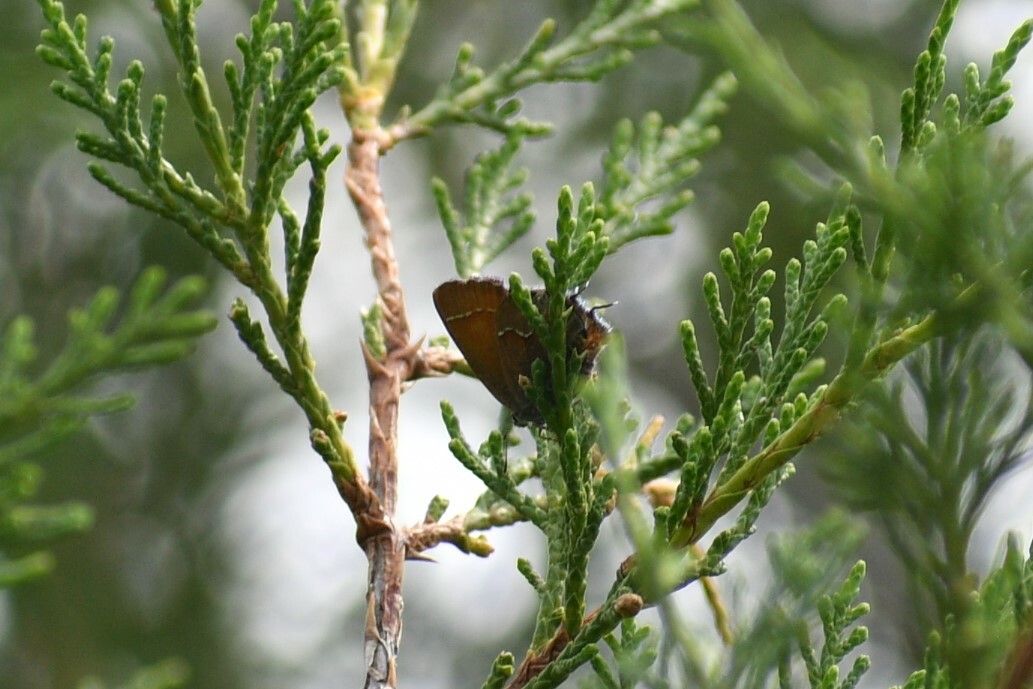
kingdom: Animalia
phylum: Arthropoda
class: Insecta
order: Lepidoptera
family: Lycaenidae
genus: Mitoura
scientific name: Mitoura gryneus
